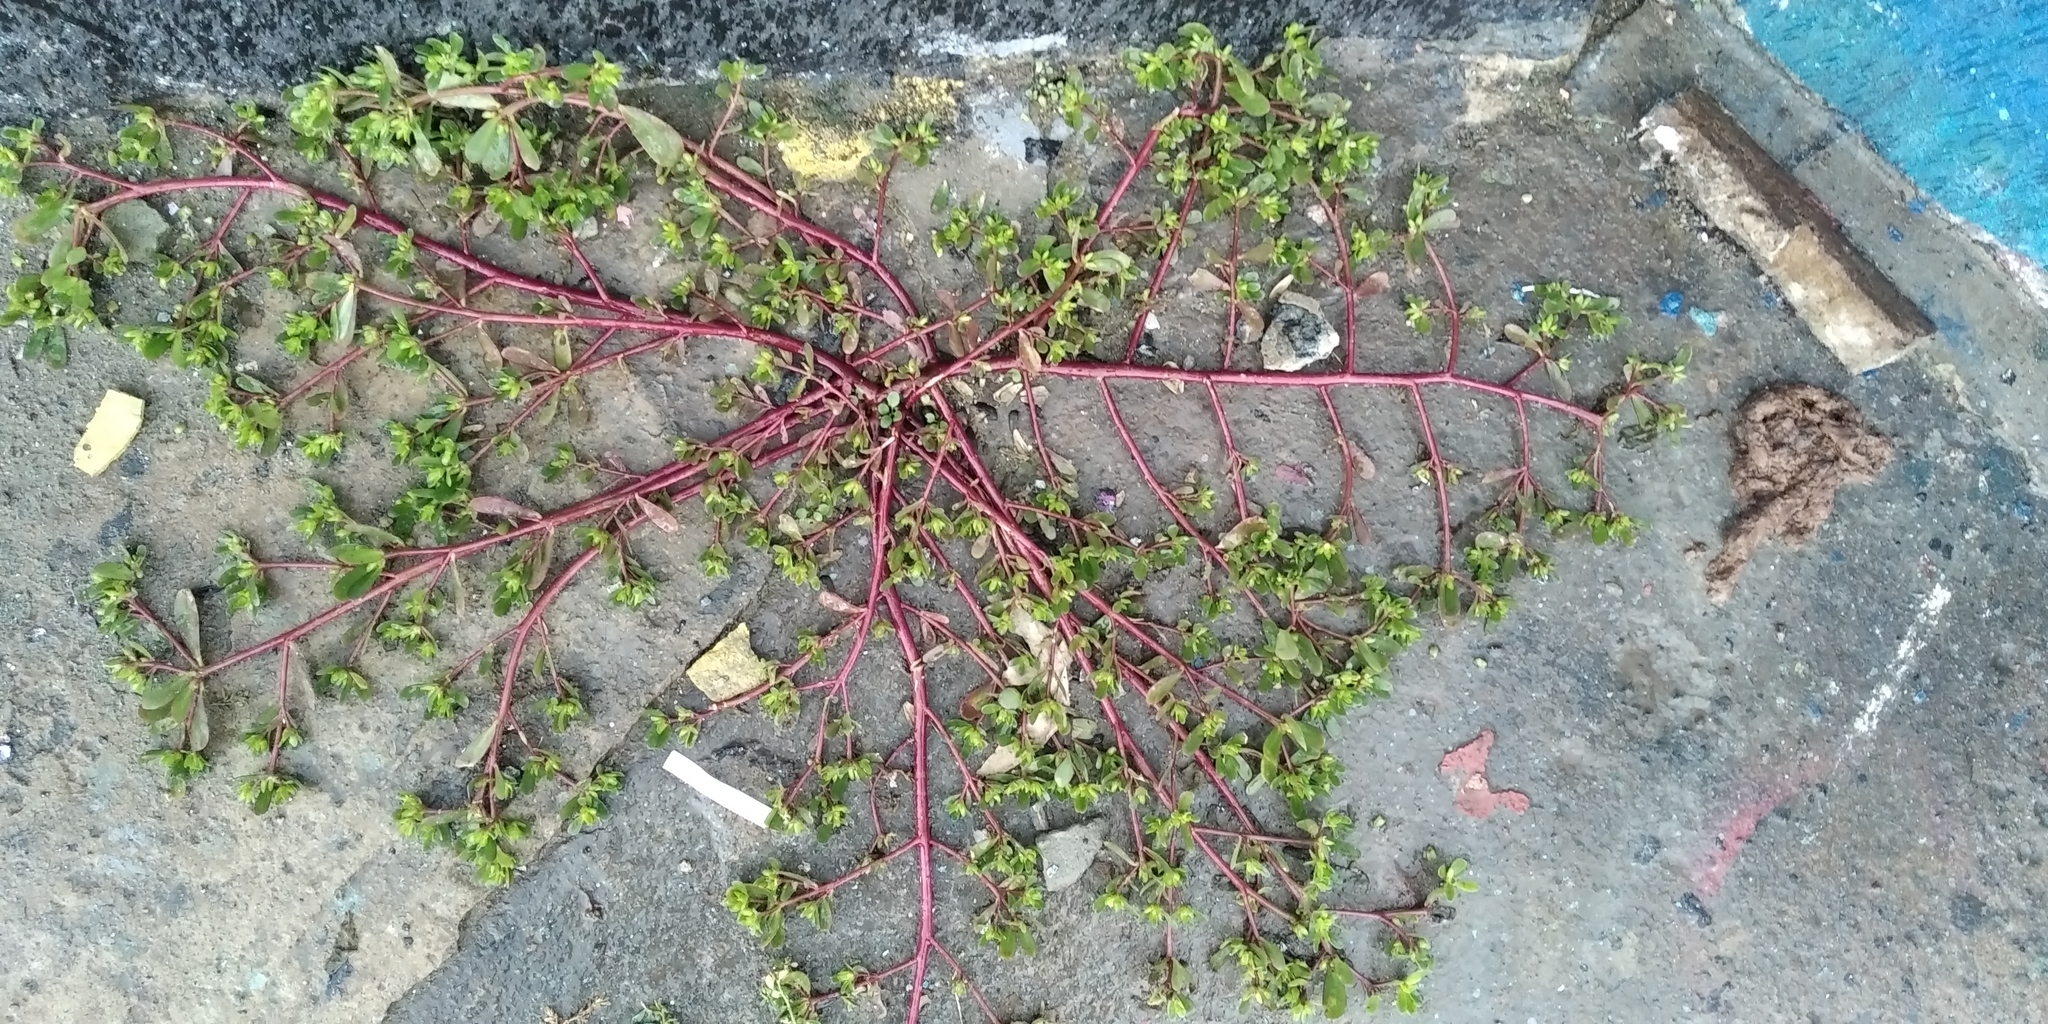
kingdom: Plantae
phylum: Tracheophyta
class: Magnoliopsida
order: Caryophyllales
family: Portulacaceae
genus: Portulaca
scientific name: Portulaca oleracea
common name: Common purslane
